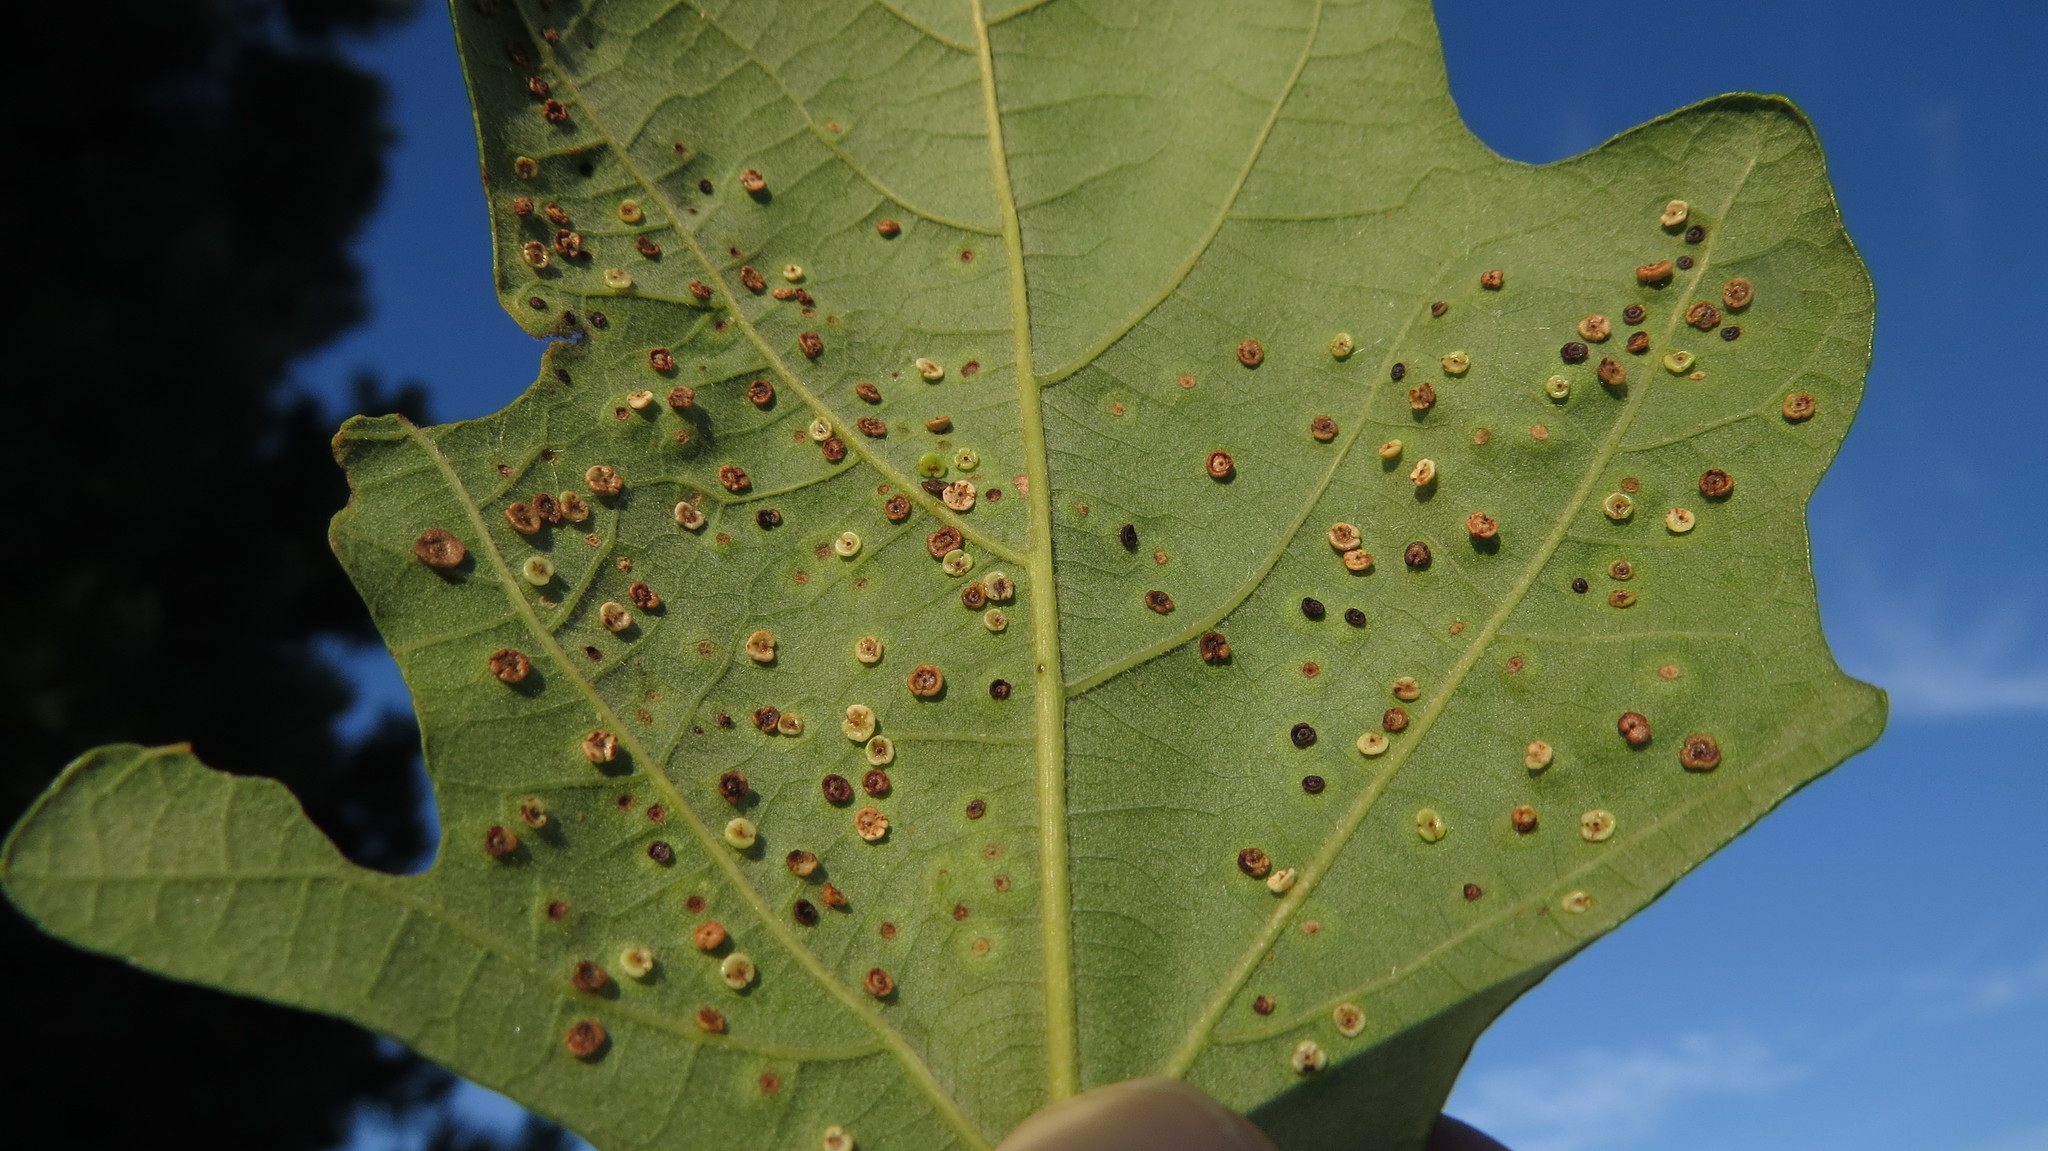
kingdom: Animalia
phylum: Arthropoda
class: Insecta
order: Hymenoptera
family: Cynipidae
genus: Neuroterus
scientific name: Neuroterus saltarius
